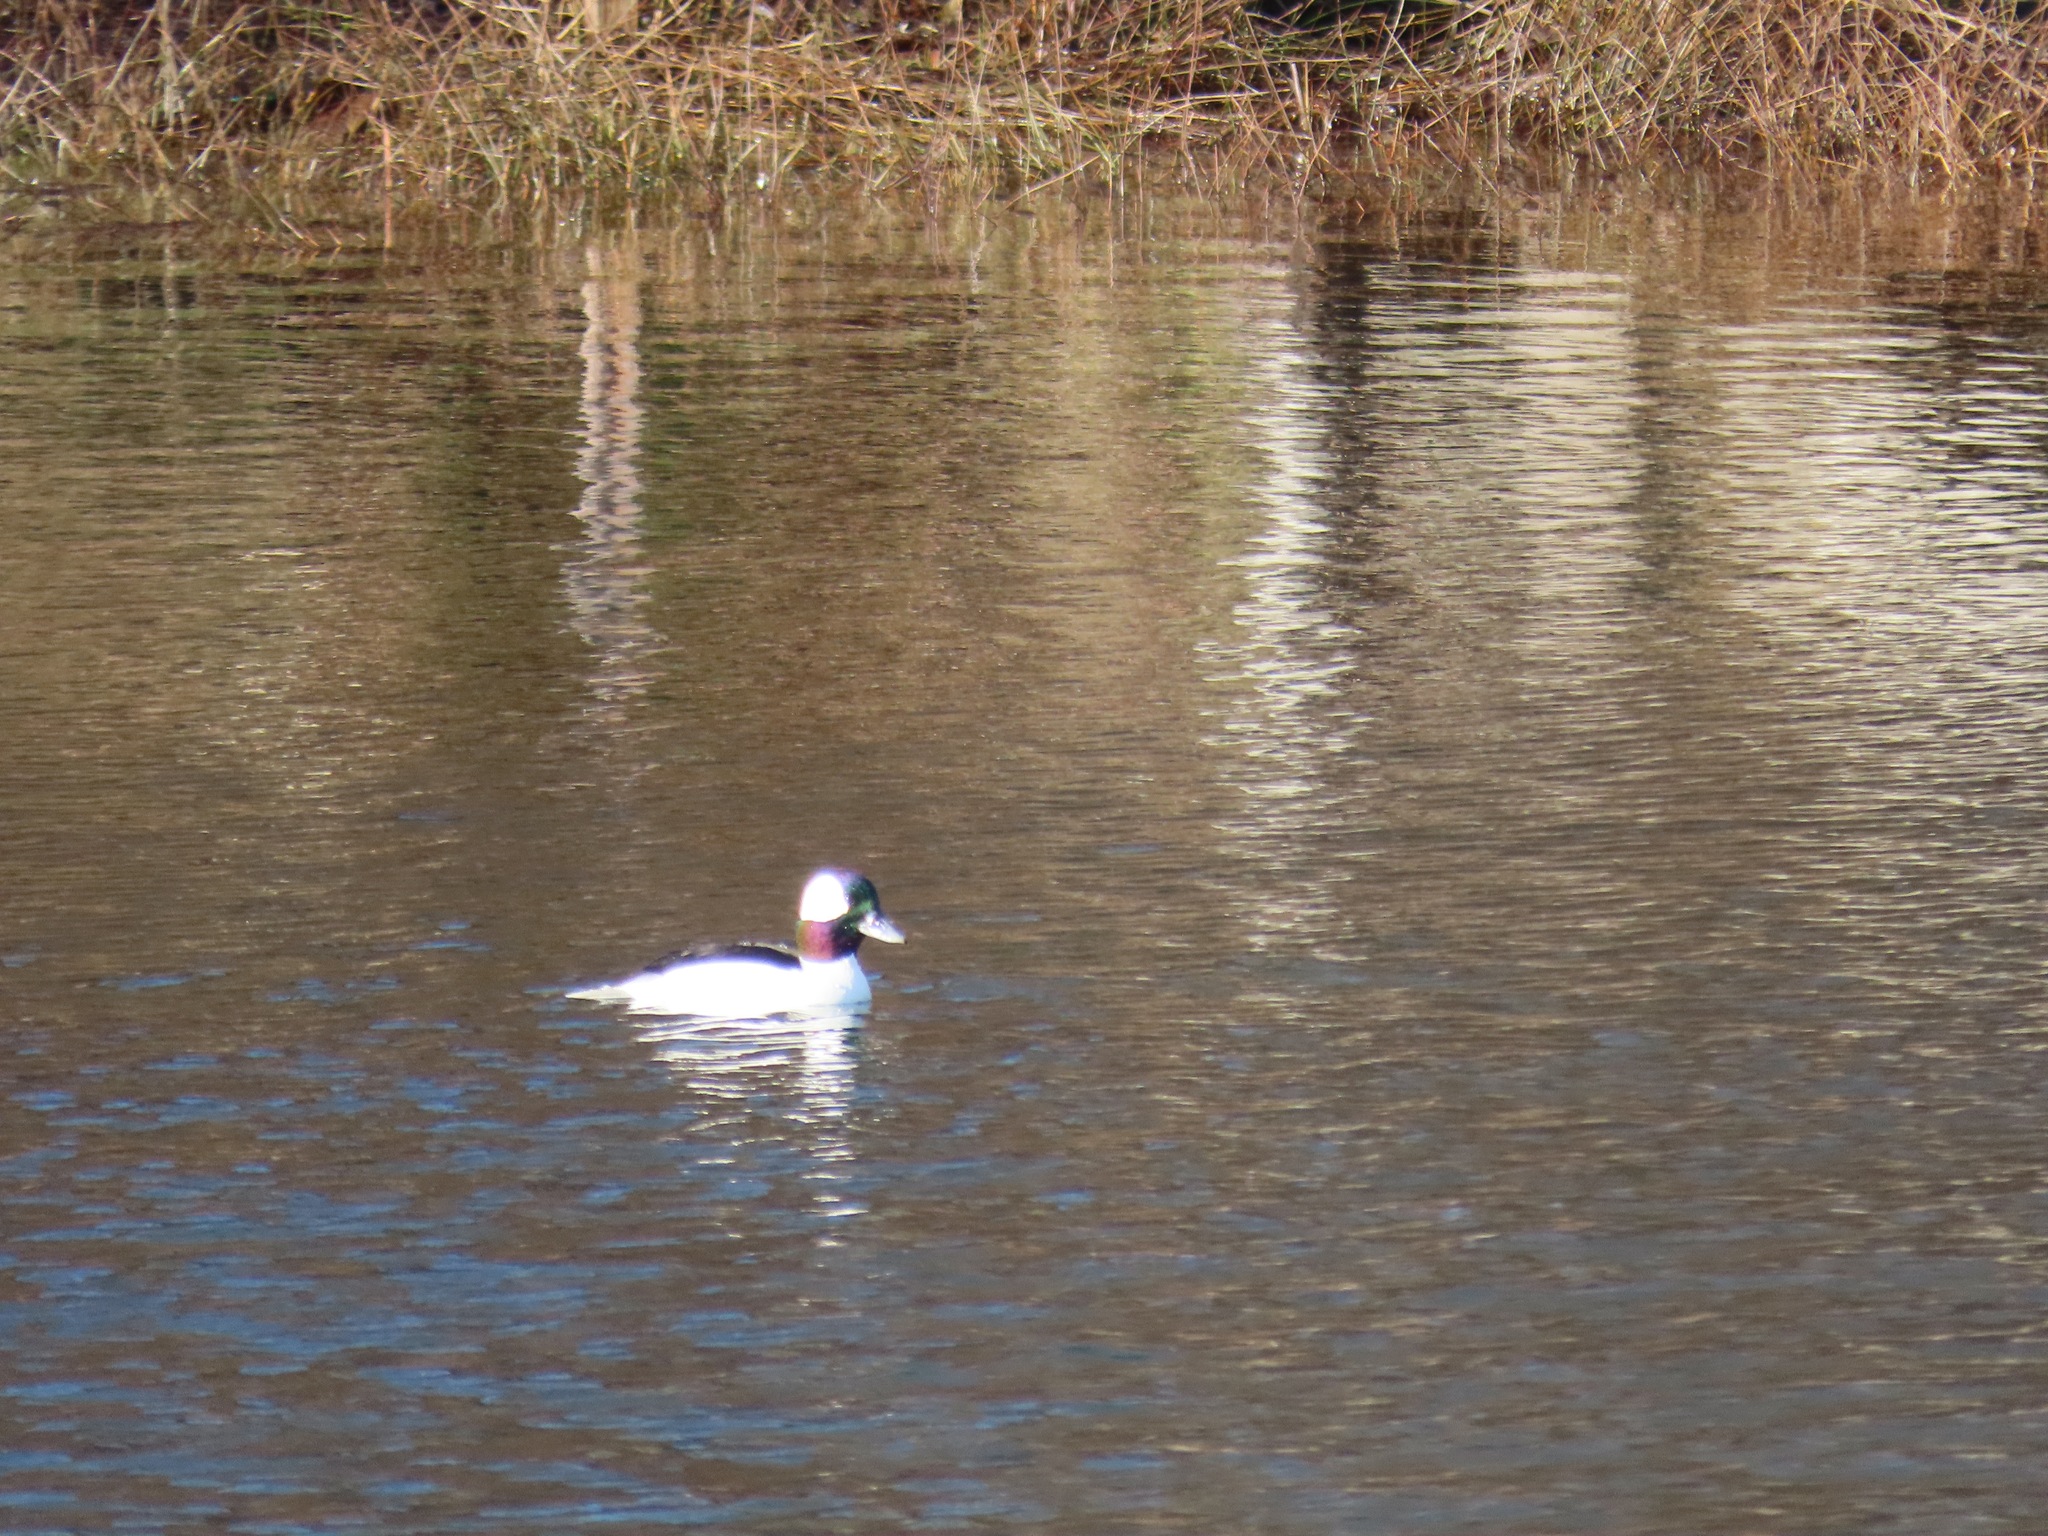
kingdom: Animalia
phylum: Chordata
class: Aves
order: Anseriformes
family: Anatidae
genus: Bucephala
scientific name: Bucephala albeola
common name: Bufflehead
